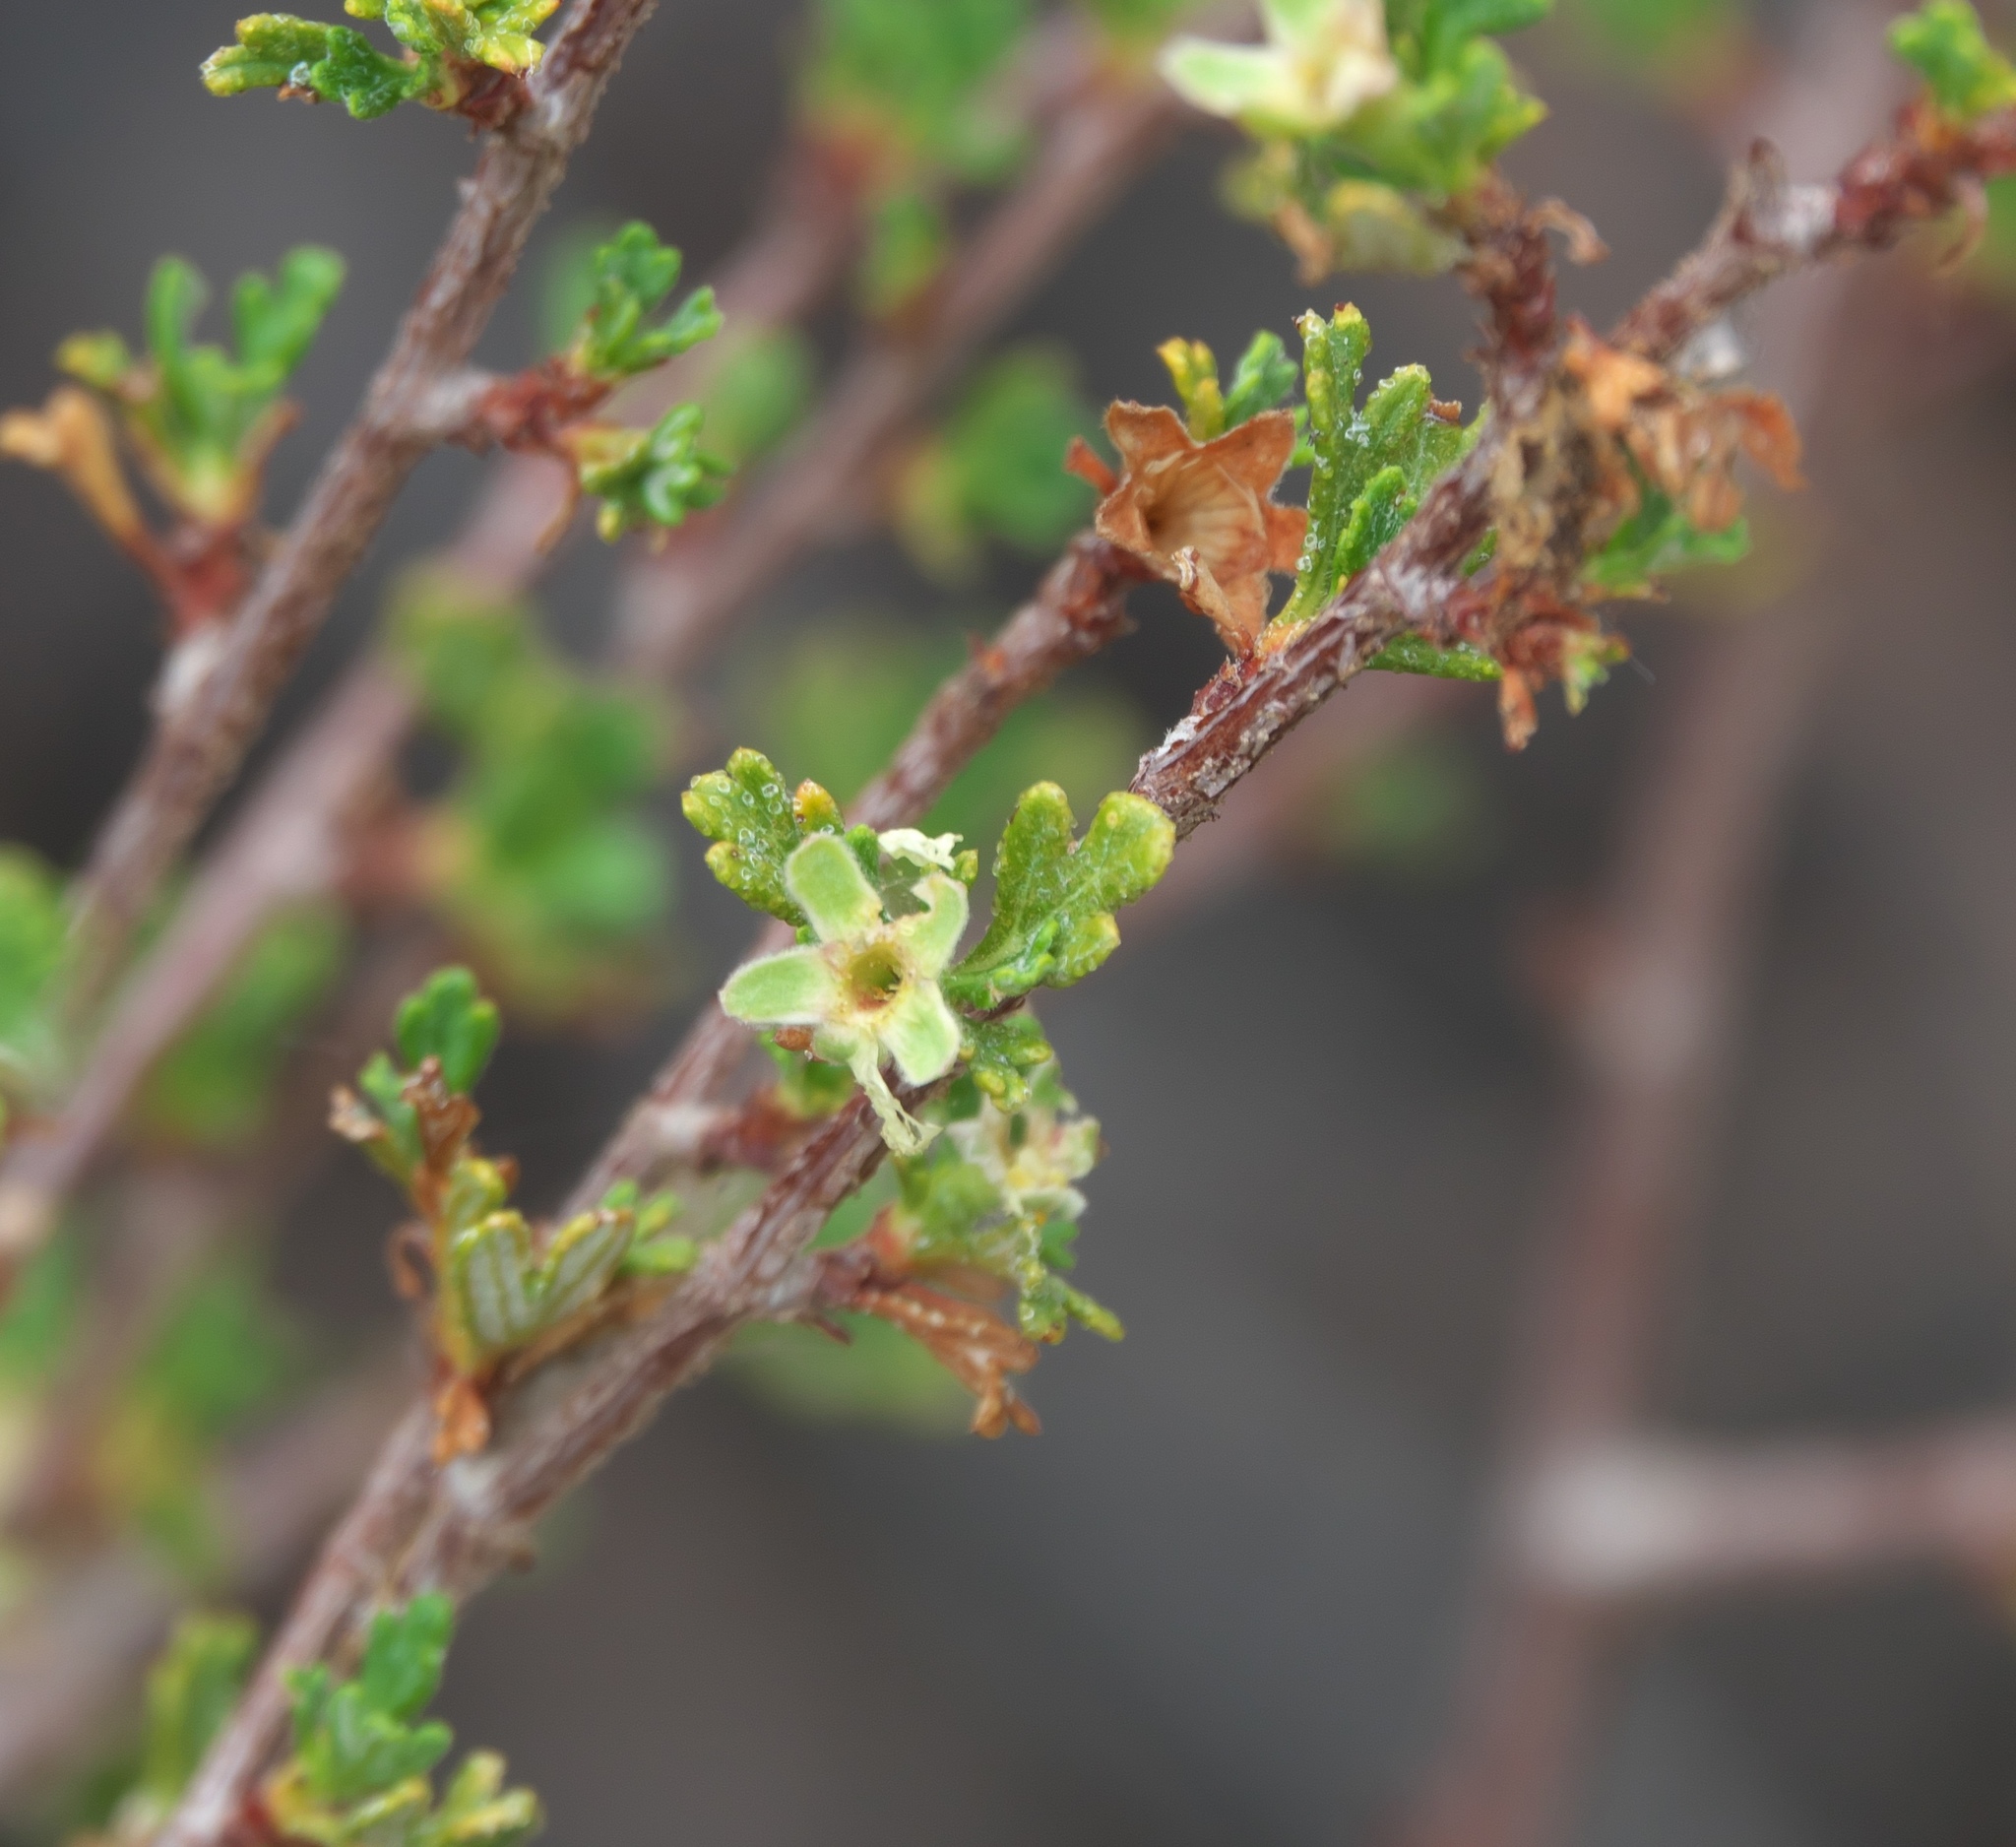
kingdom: Plantae
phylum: Tracheophyta
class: Magnoliopsida
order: Rosales
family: Rosaceae
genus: Purshia
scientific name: Purshia tridentata
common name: Antelope bitterbrush
